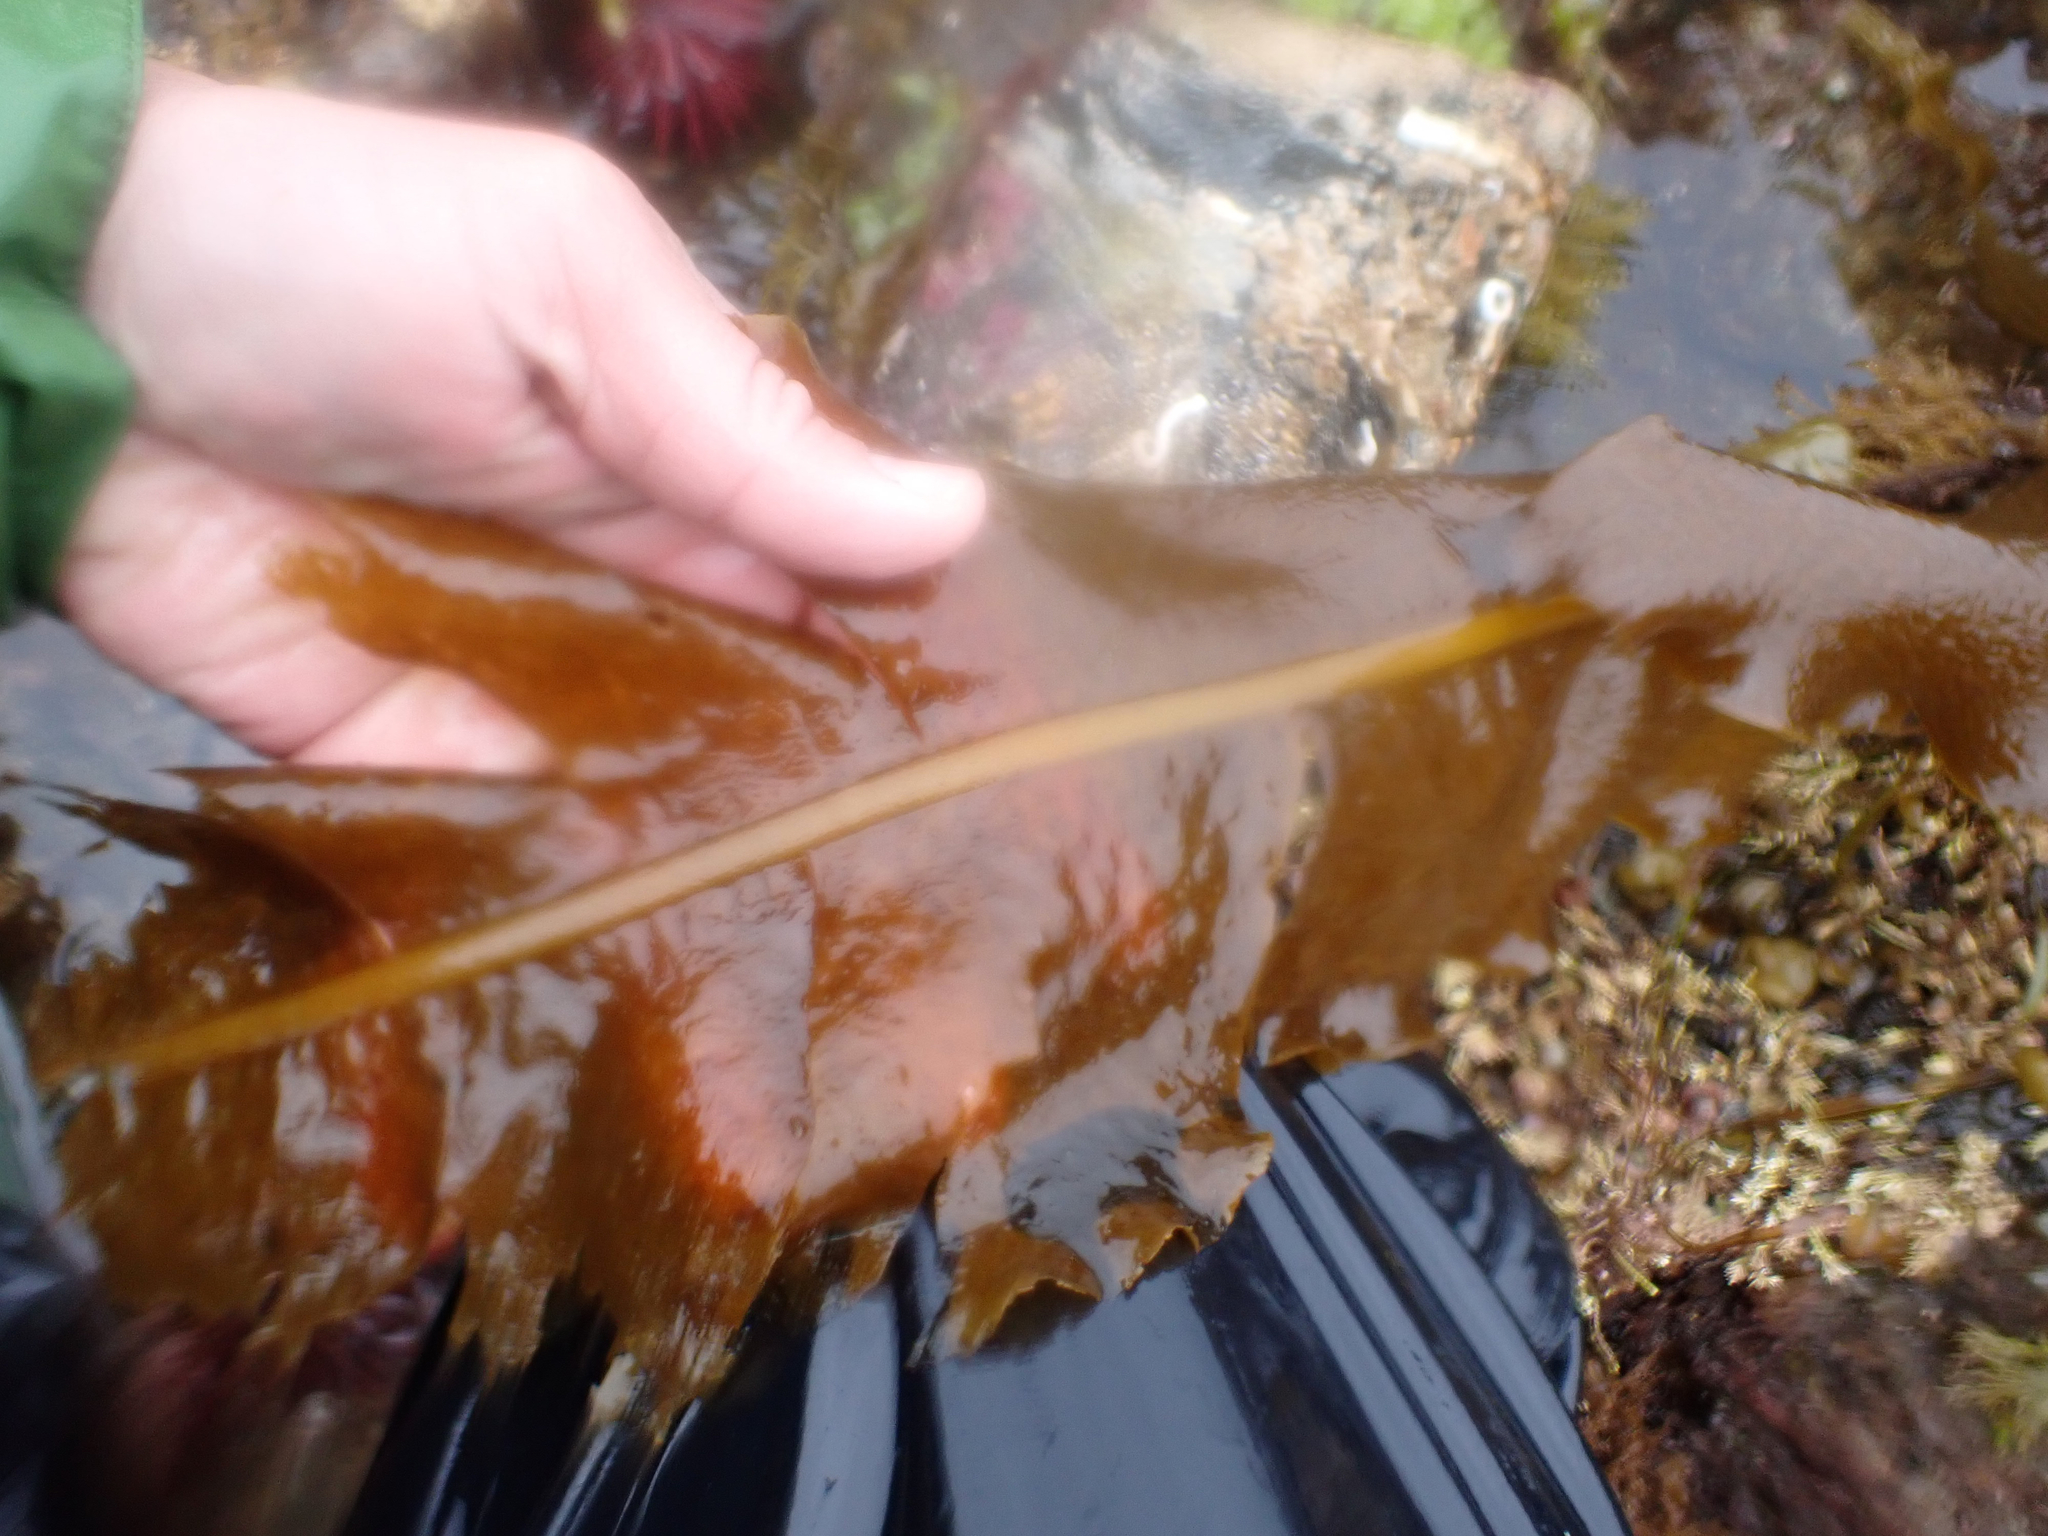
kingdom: Chromista
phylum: Ochrophyta
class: Phaeophyceae
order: Laminariales
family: Alariaceae
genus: Alaria
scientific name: Alaria marginata
